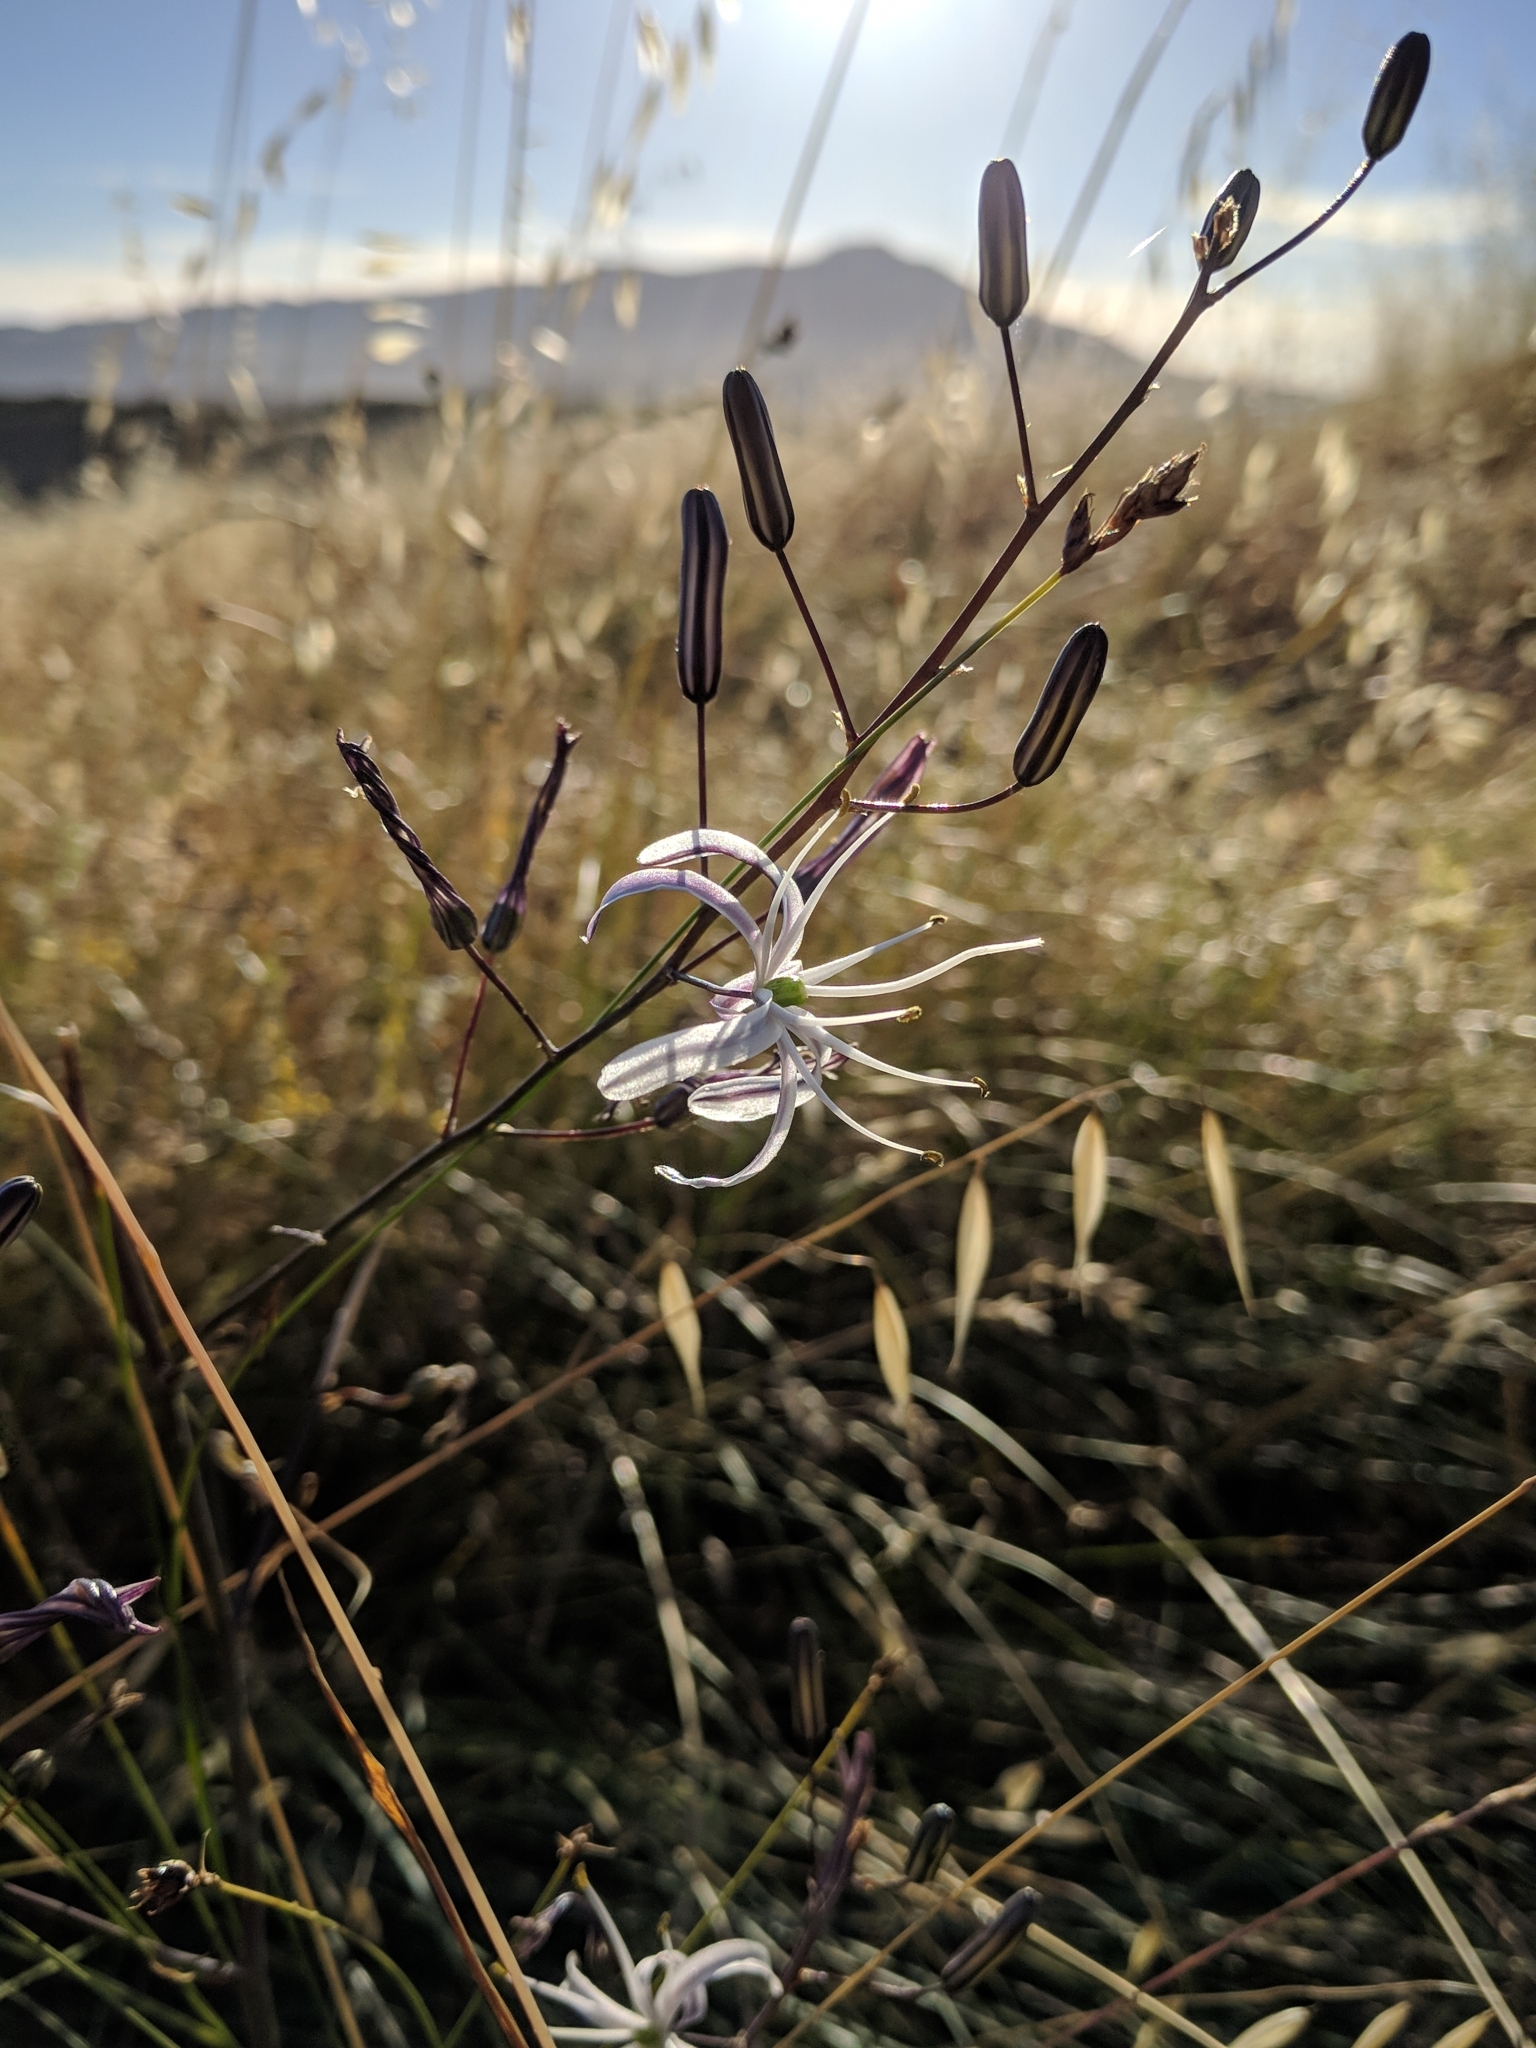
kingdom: Plantae
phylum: Tracheophyta
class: Liliopsida
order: Asparagales
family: Asparagaceae
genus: Chlorogalum
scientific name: Chlorogalum pomeridianum
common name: Amole
